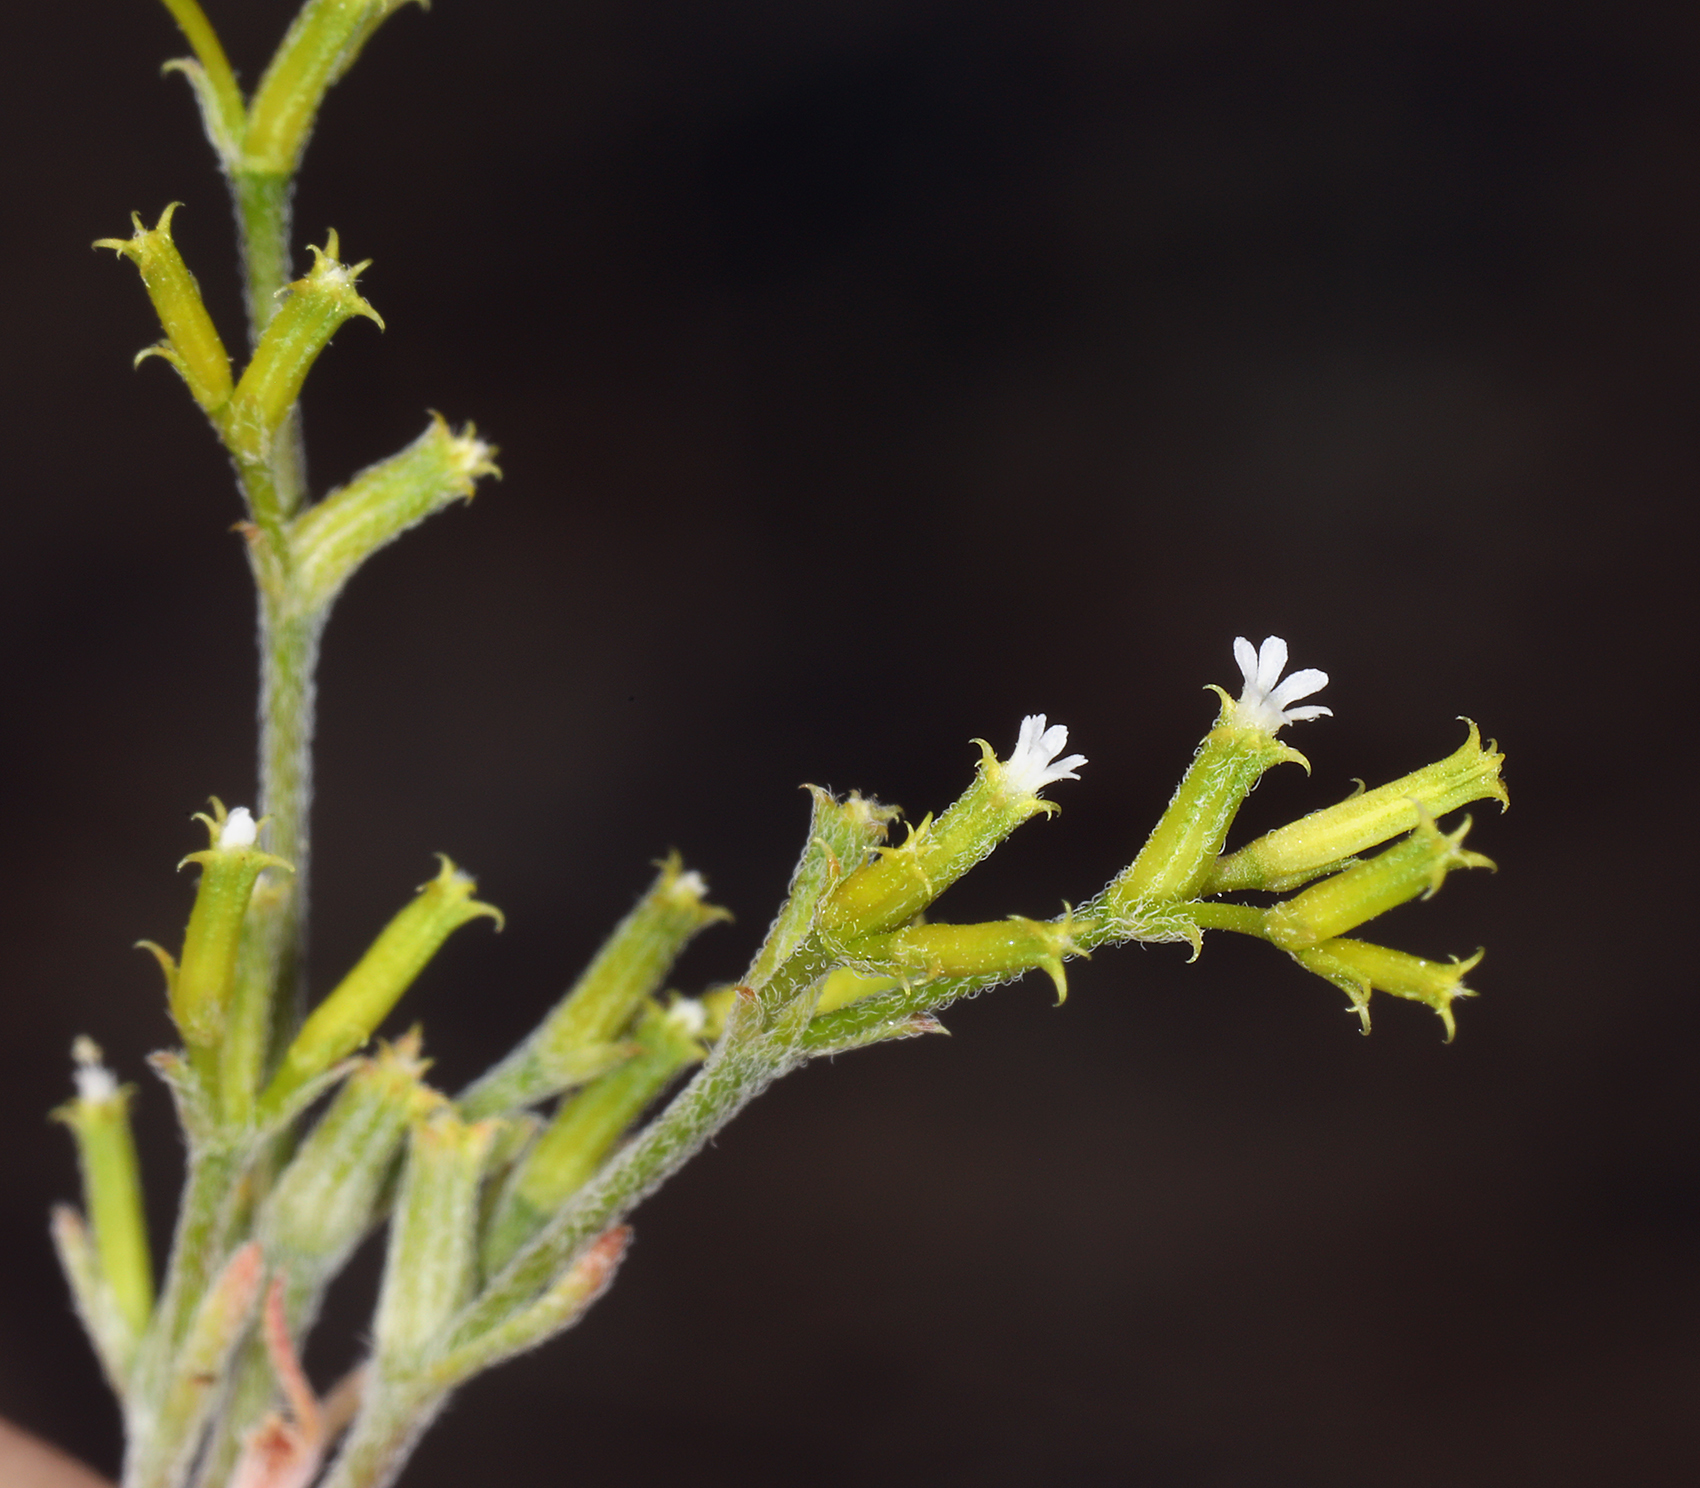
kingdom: Plantae
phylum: Tracheophyta
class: Magnoliopsida
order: Caryophyllales
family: Polygonaceae
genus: Chorizanthe
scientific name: Chorizanthe brevicornu
